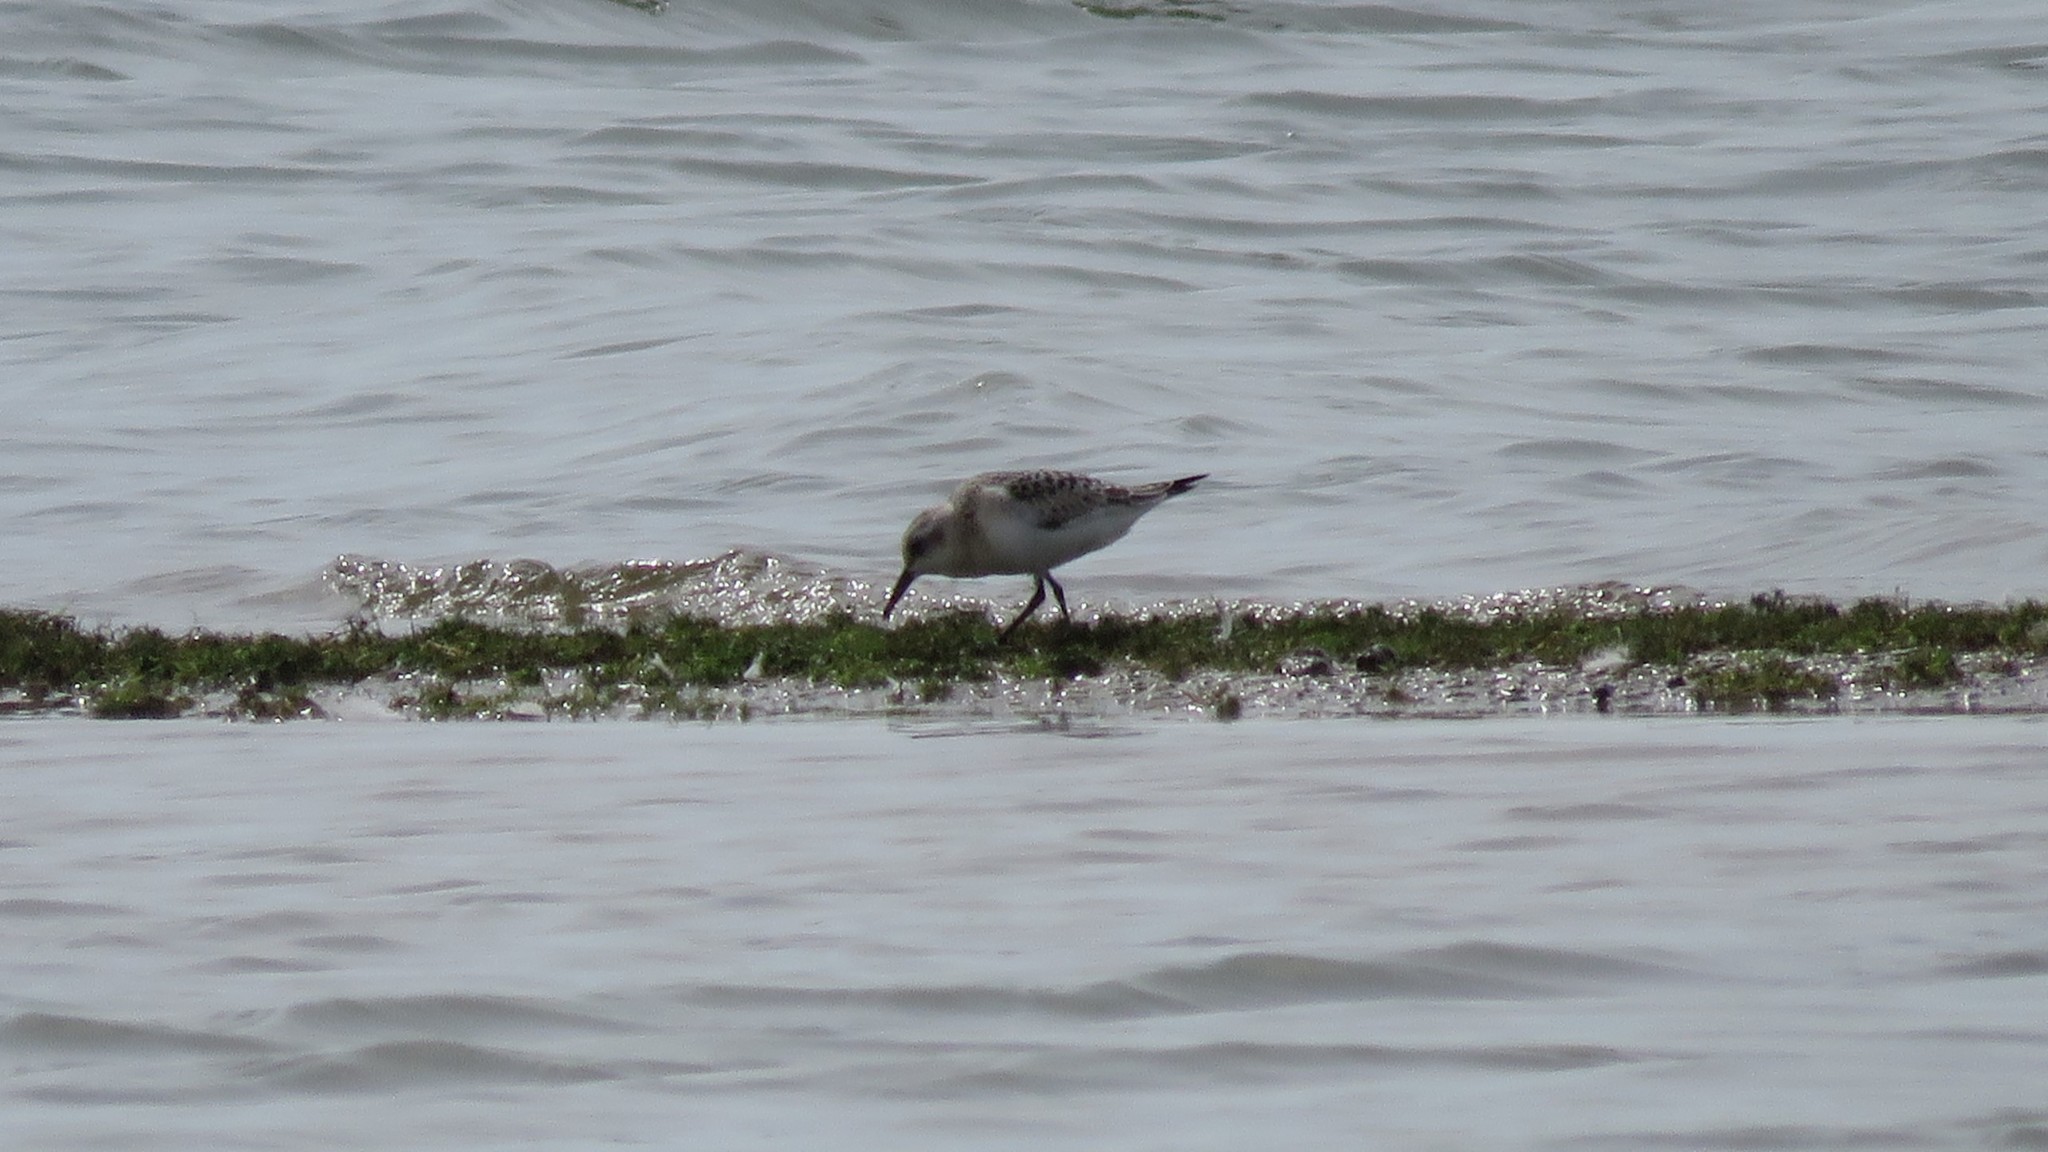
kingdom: Animalia
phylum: Chordata
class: Aves
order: Charadriiformes
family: Scolopacidae
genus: Calidris
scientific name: Calidris alba
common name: Sanderling
